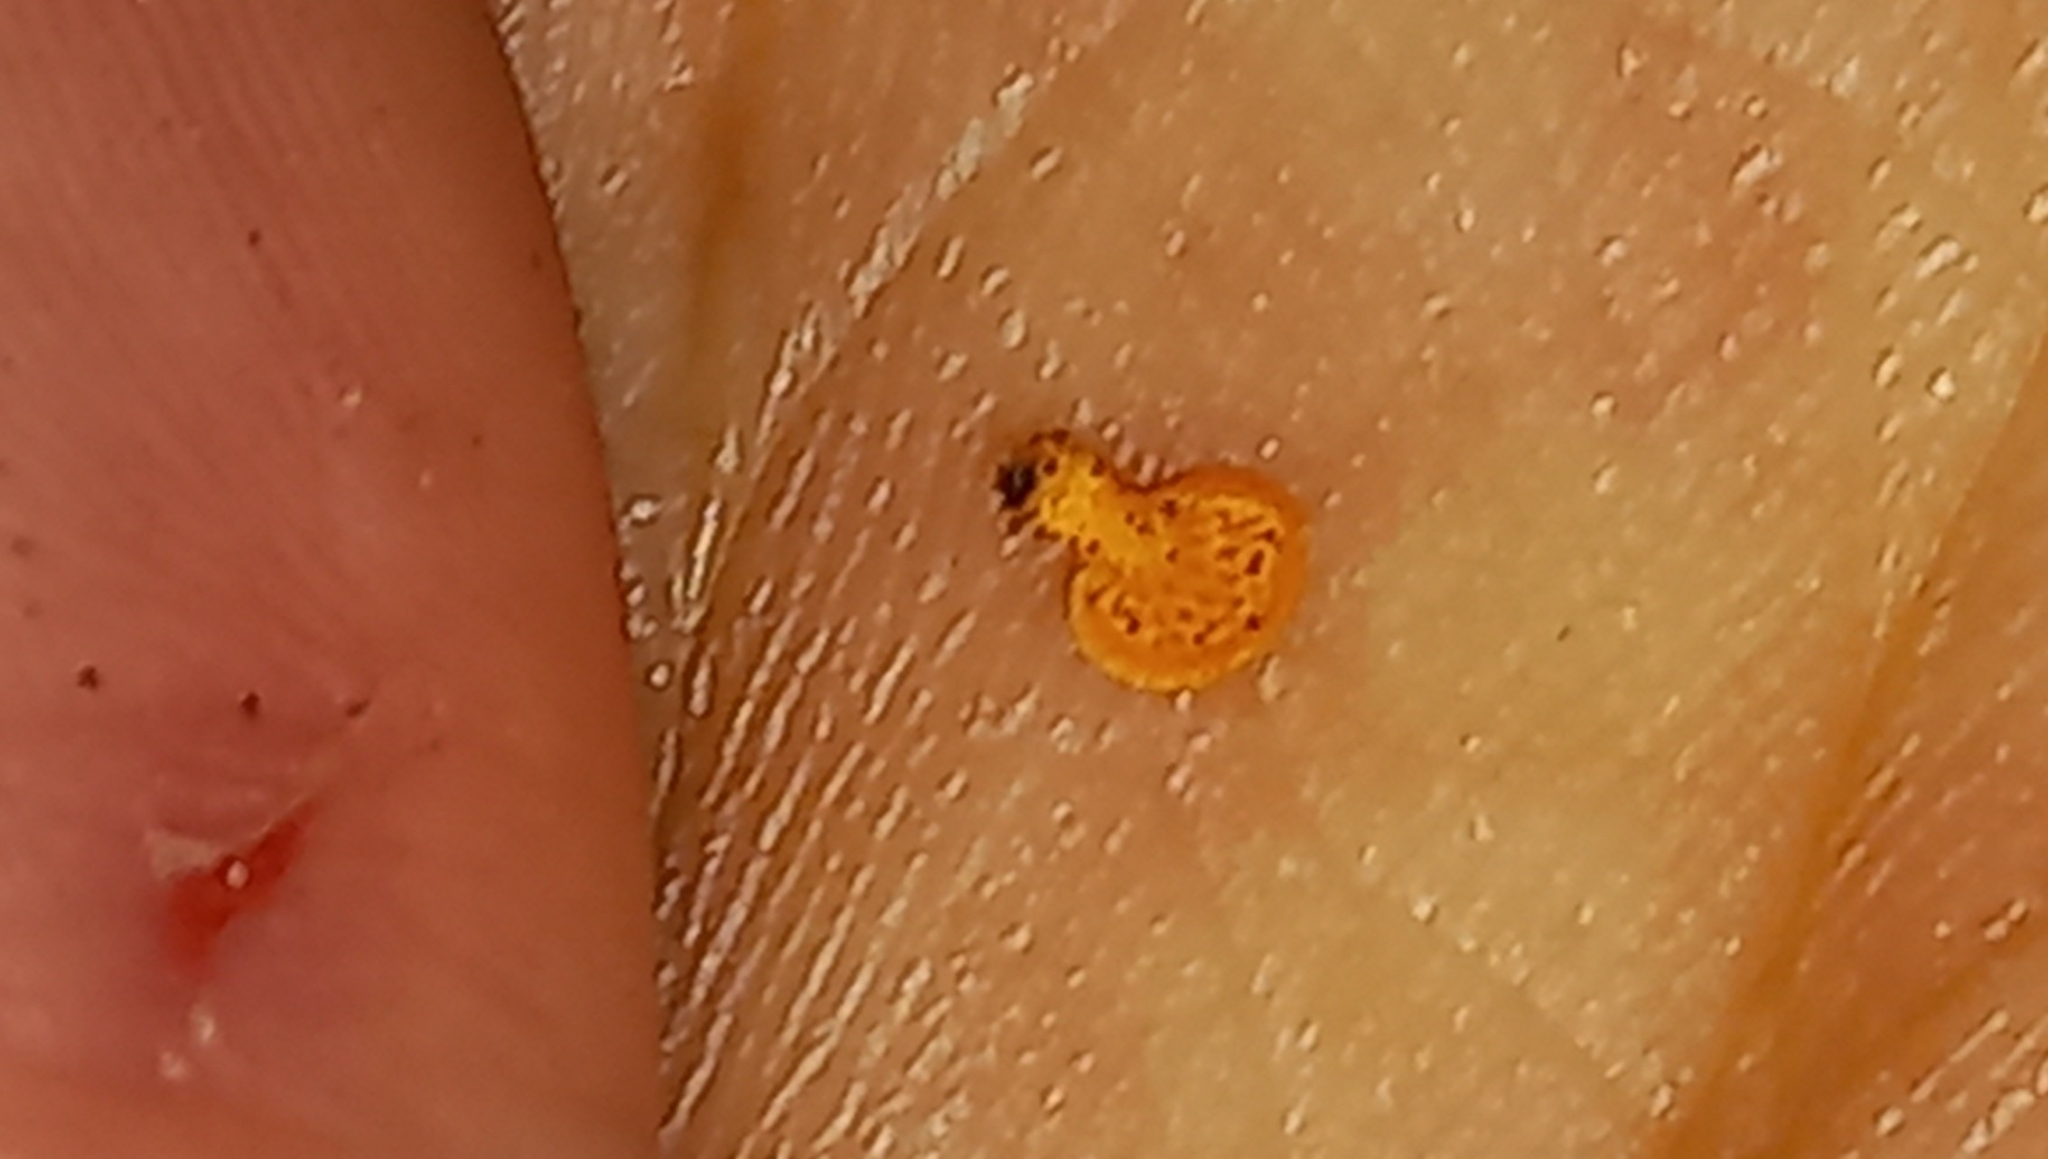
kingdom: Fungi
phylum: Basidiomycota
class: Agaricomycetes
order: Agaricales
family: Mycenaceae
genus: Favolaschia
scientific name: Favolaschia claudopus
